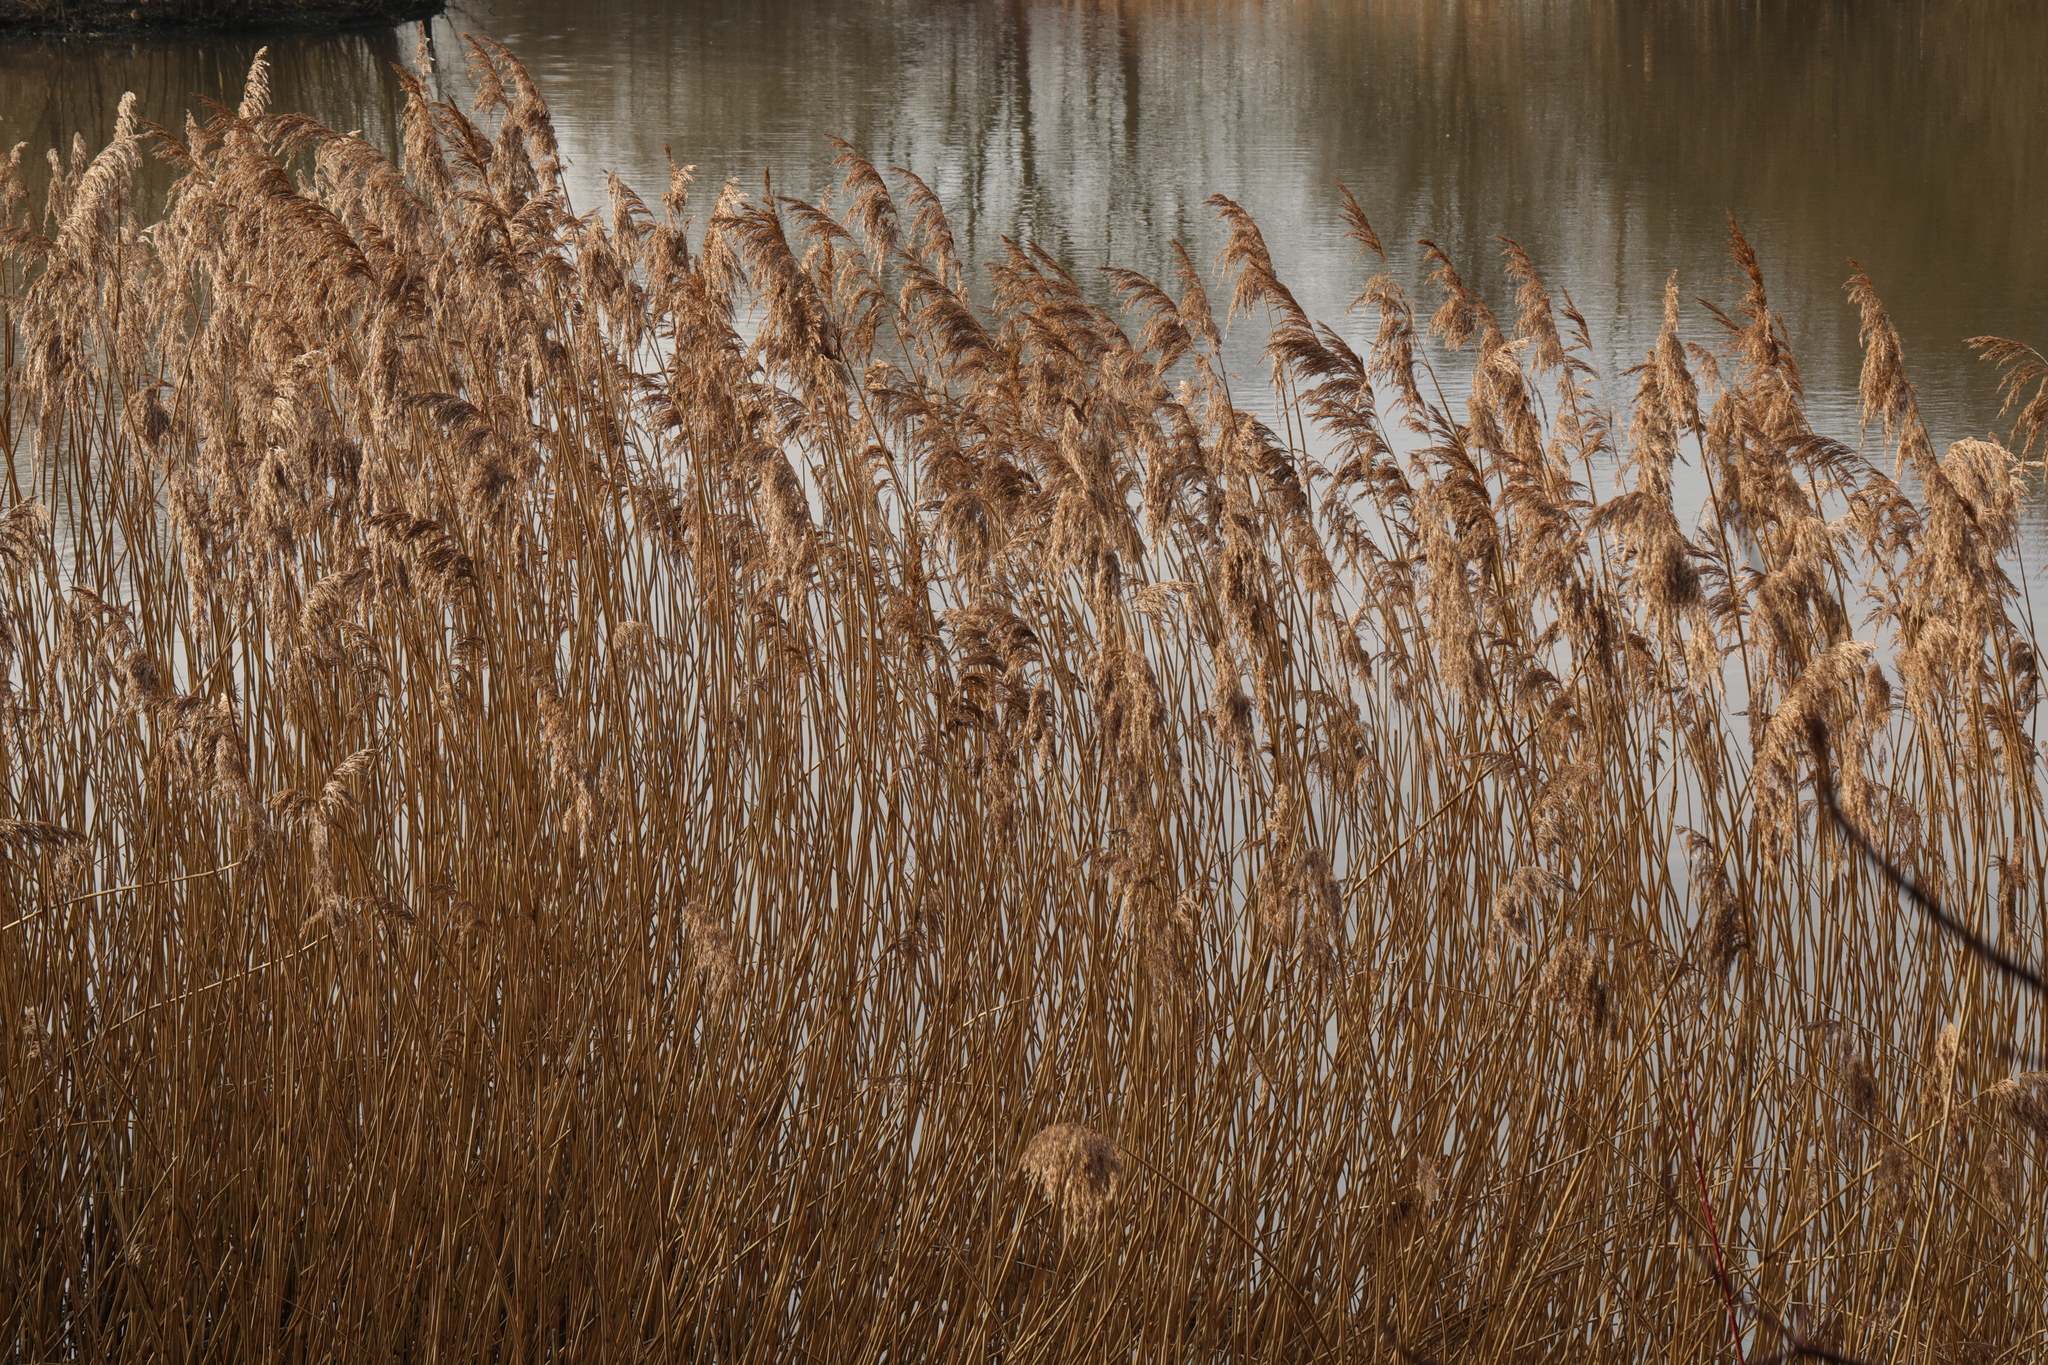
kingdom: Plantae
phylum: Tracheophyta
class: Liliopsida
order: Poales
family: Poaceae
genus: Phragmites
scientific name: Phragmites australis
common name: Common reed
